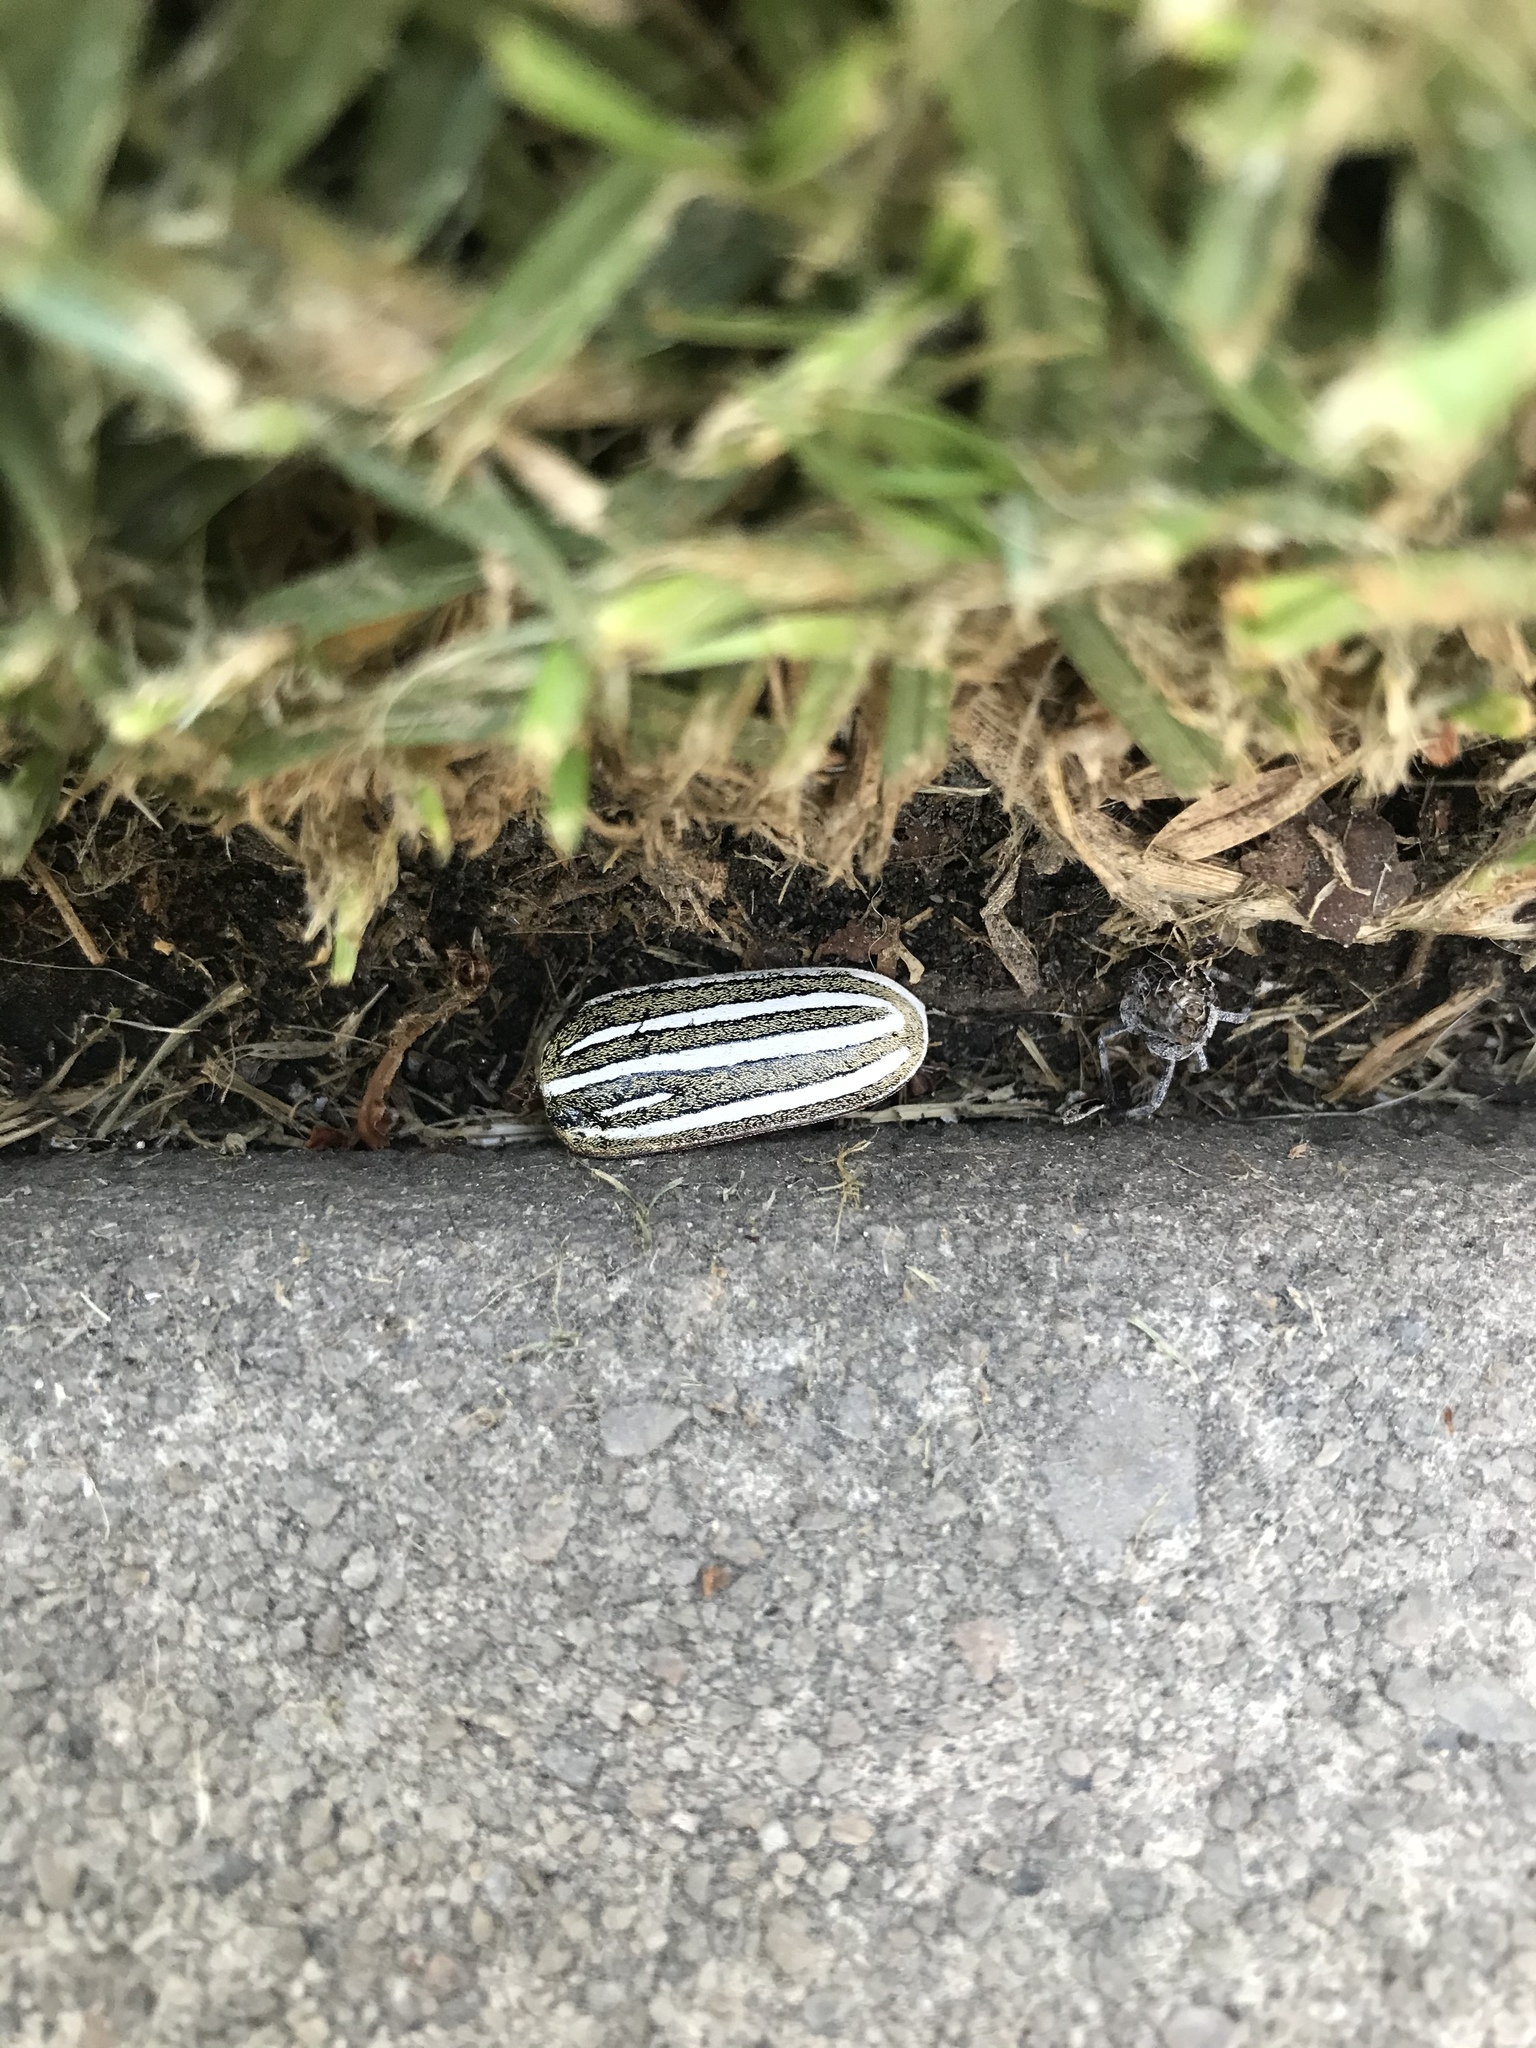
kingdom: Animalia
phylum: Arthropoda
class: Insecta
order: Coleoptera
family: Scarabaeidae
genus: Polyphylla
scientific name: Polyphylla decemlineata
